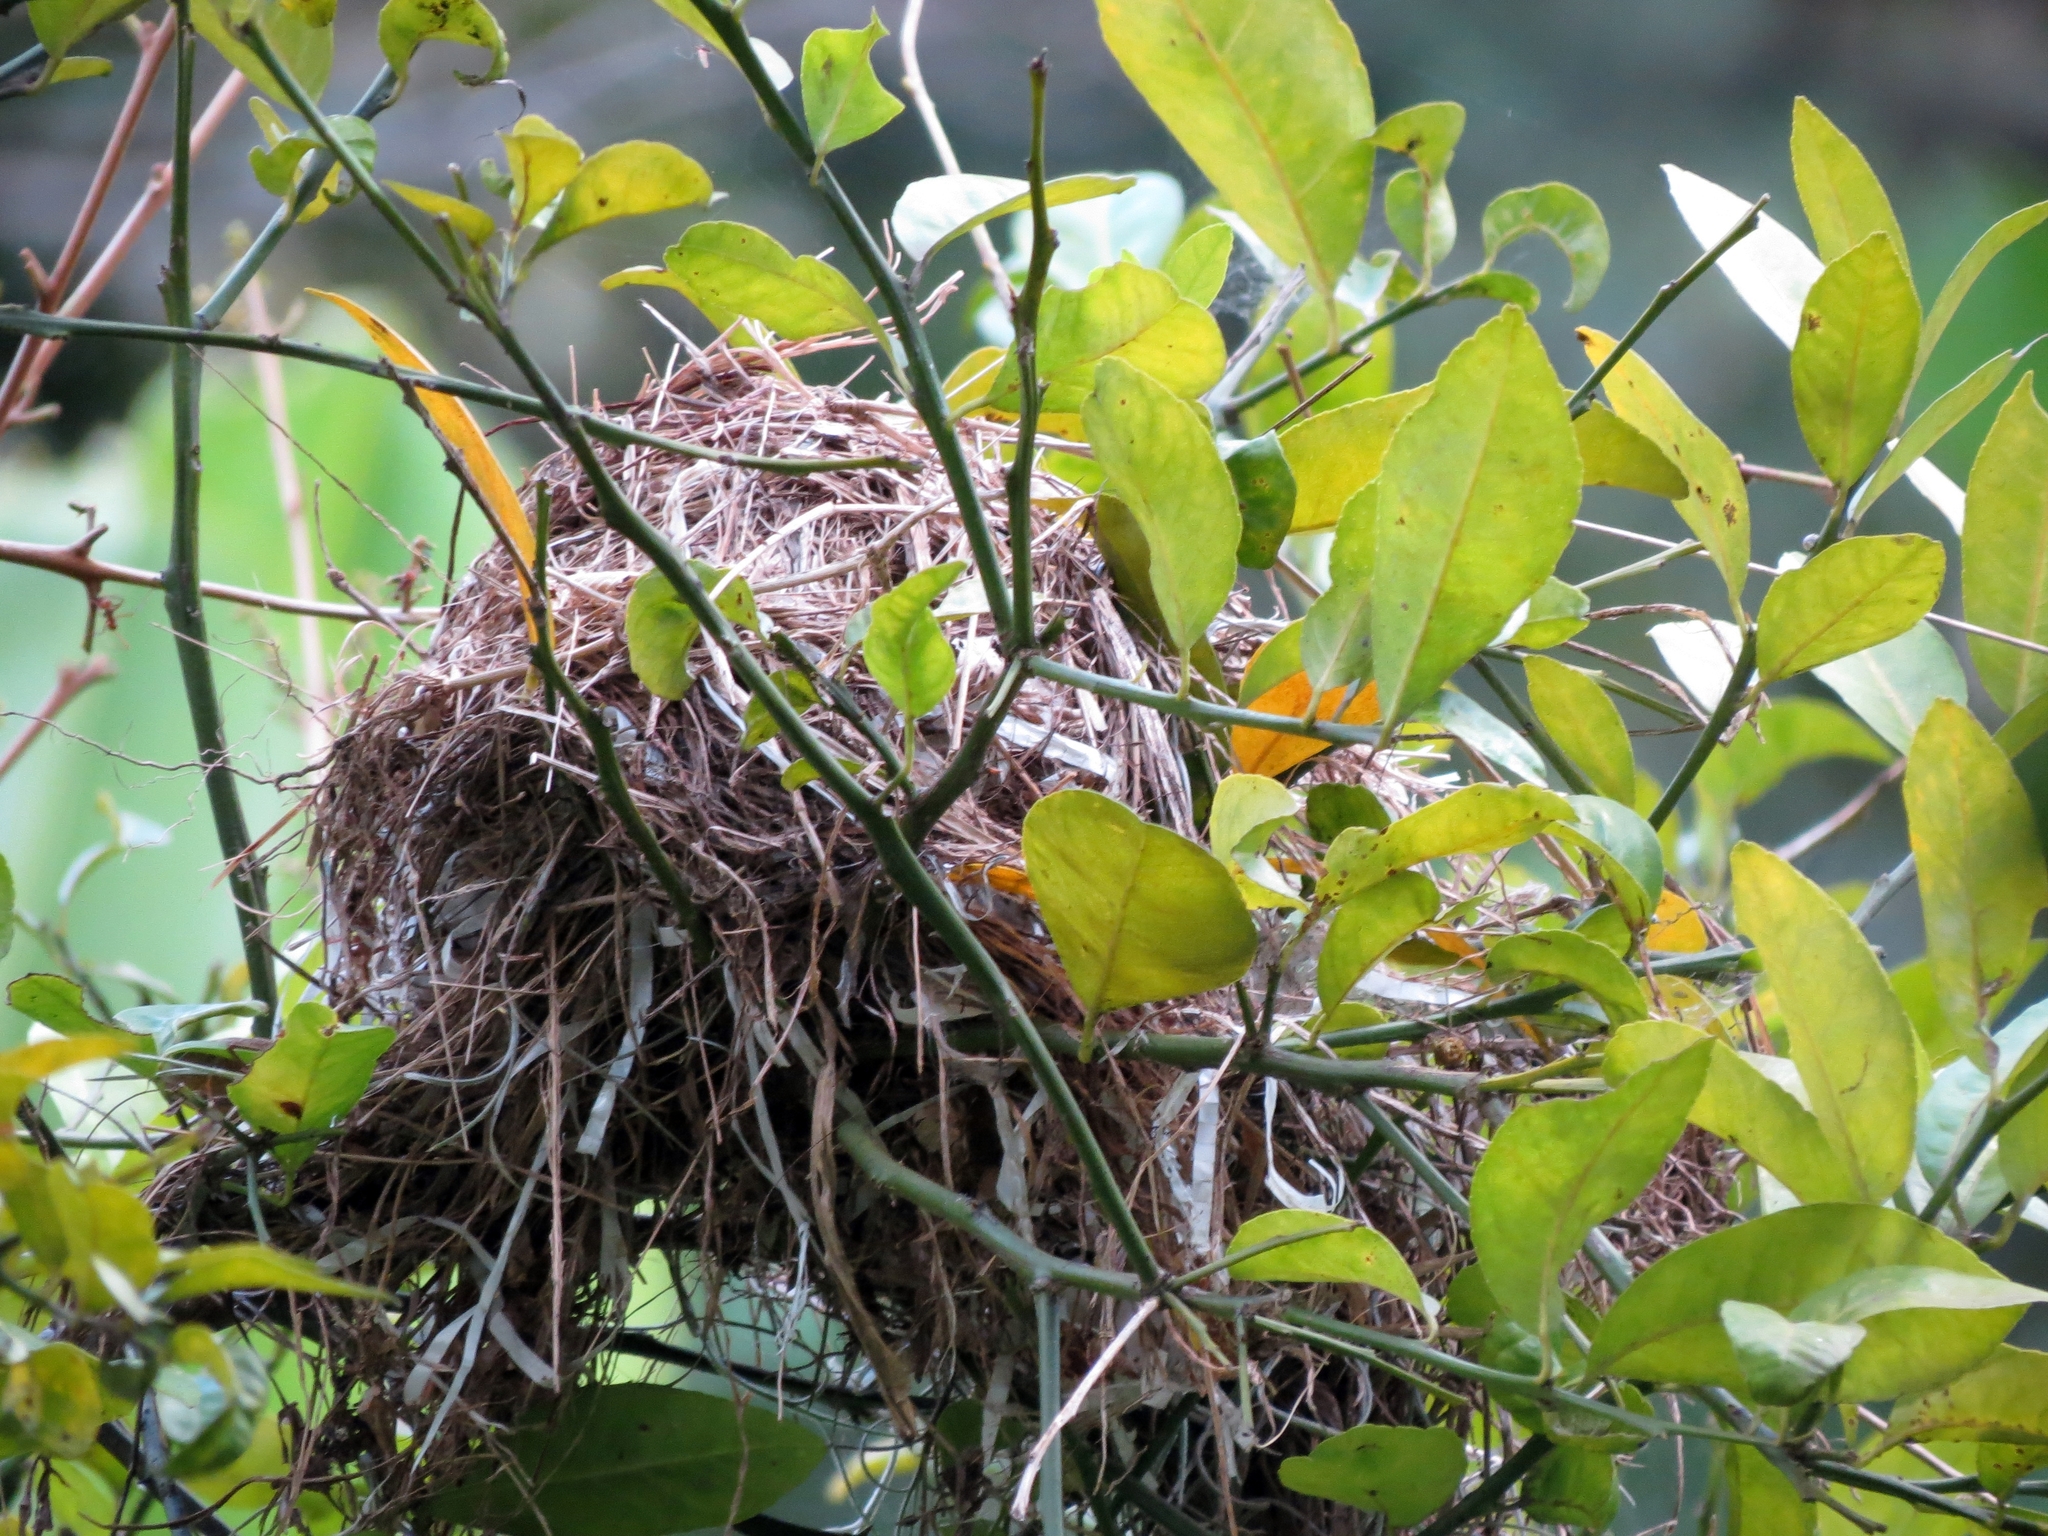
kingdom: Animalia
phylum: Chordata
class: Aves
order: Passeriformes
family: Tyrannidae
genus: Myiozetetes
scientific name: Myiozetetes cayanensis
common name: Rusty-margined flycatcher
